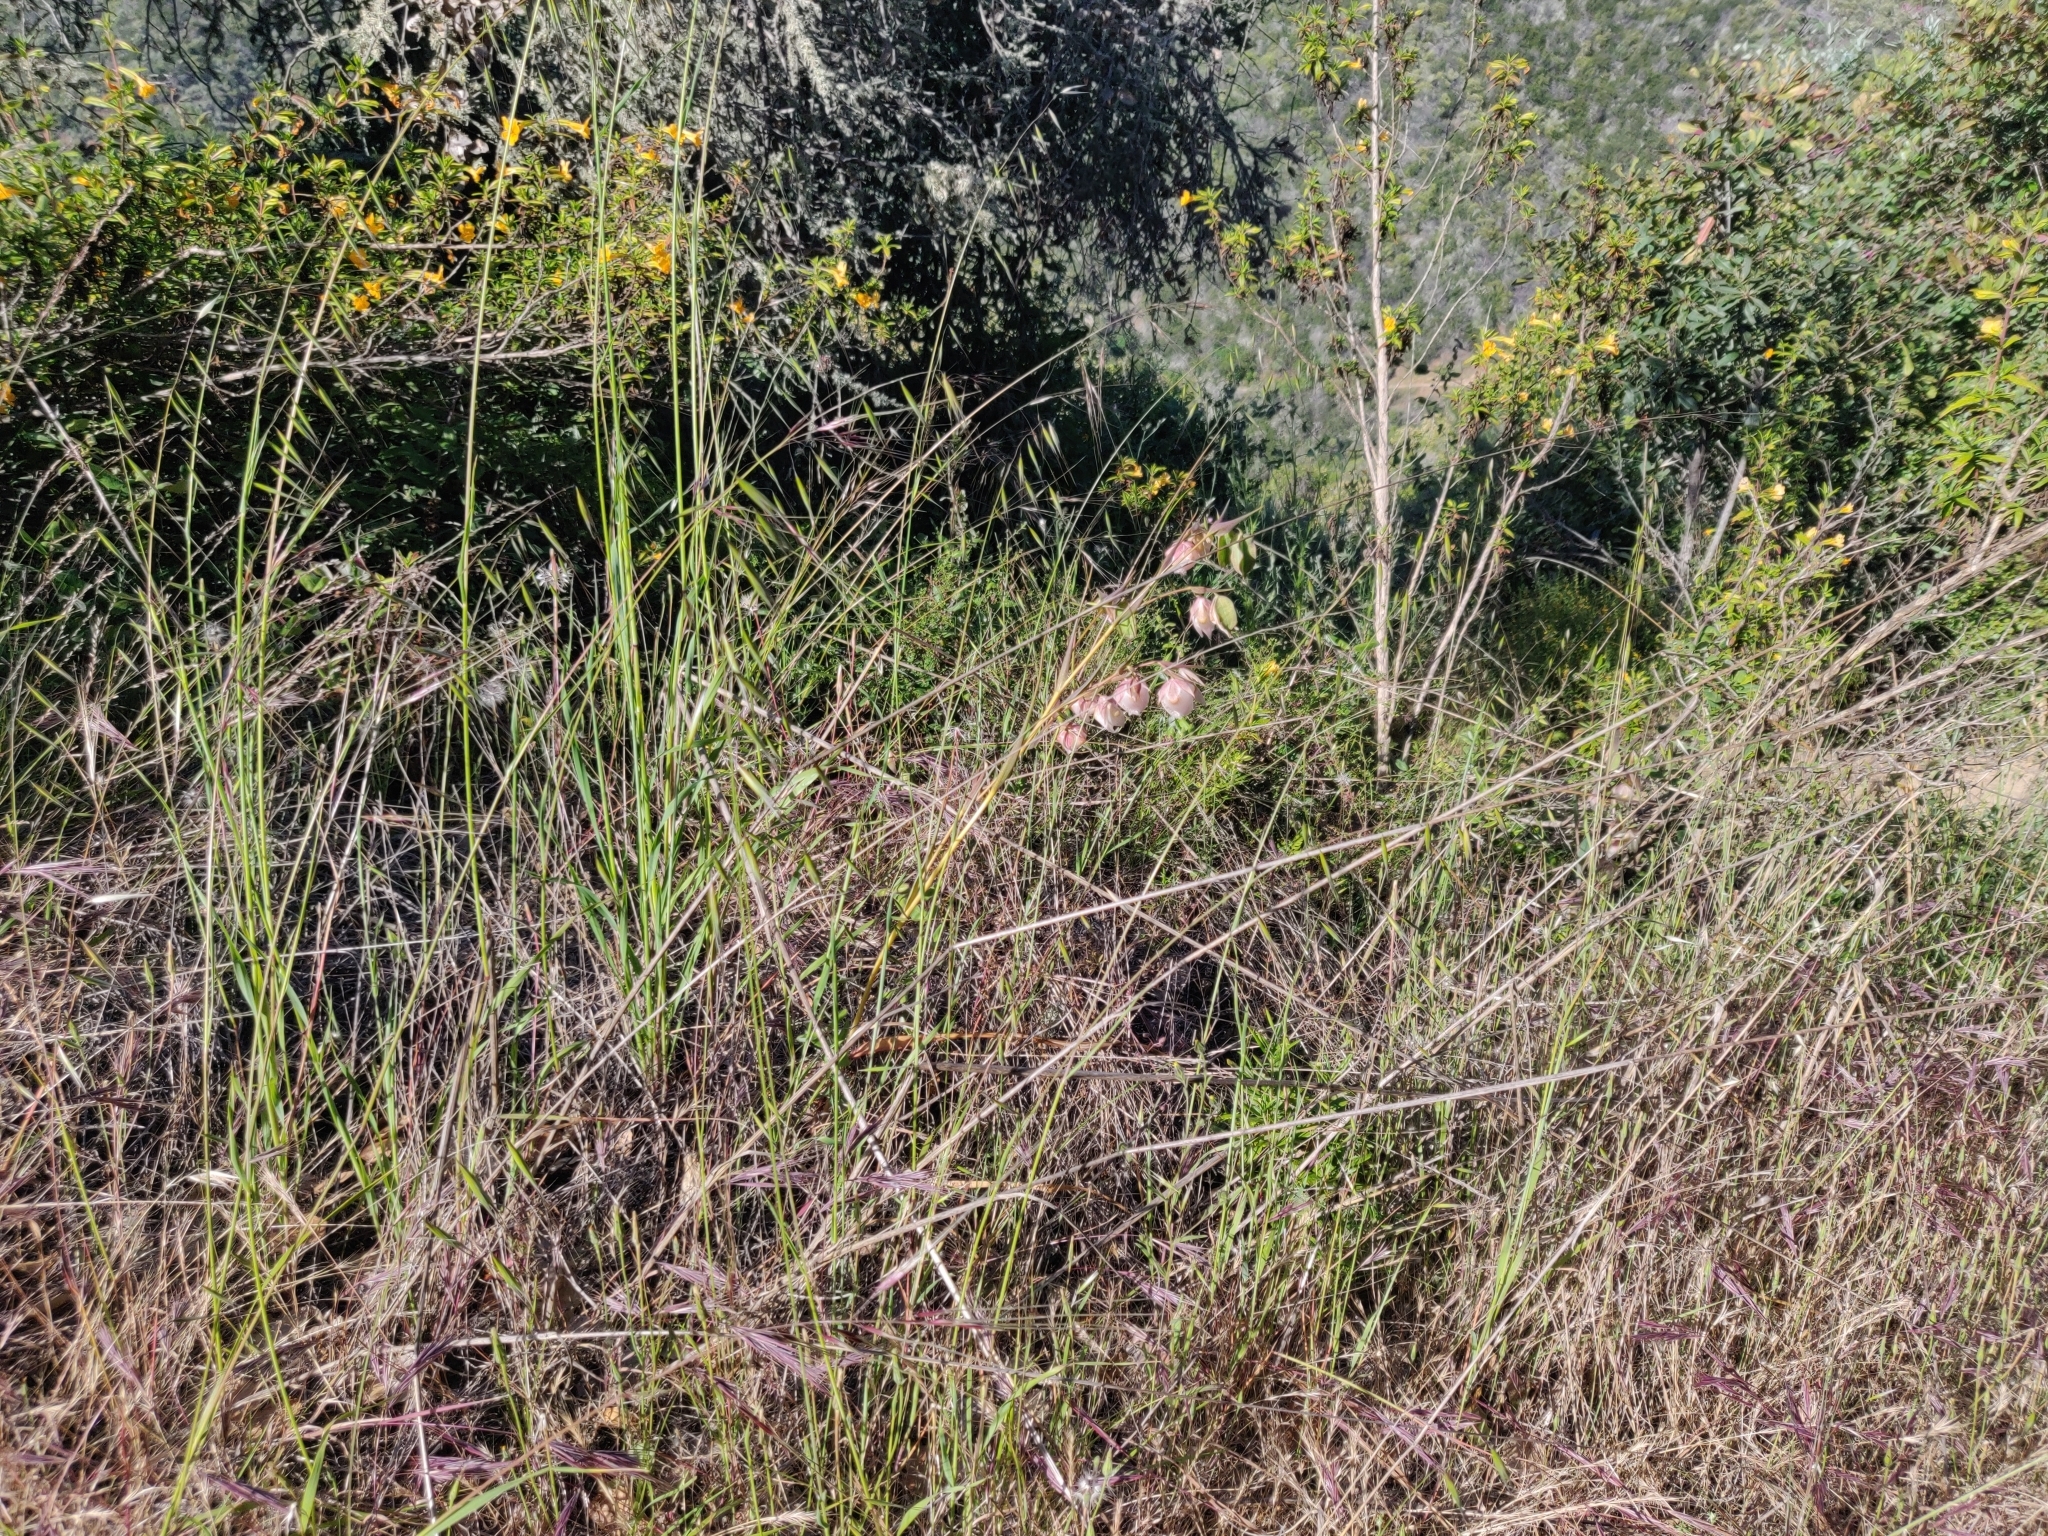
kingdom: Plantae
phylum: Tracheophyta
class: Liliopsida
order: Liliales
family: Liliaceae
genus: Calochortus
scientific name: Calochortus albus
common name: Fairy-lantern
